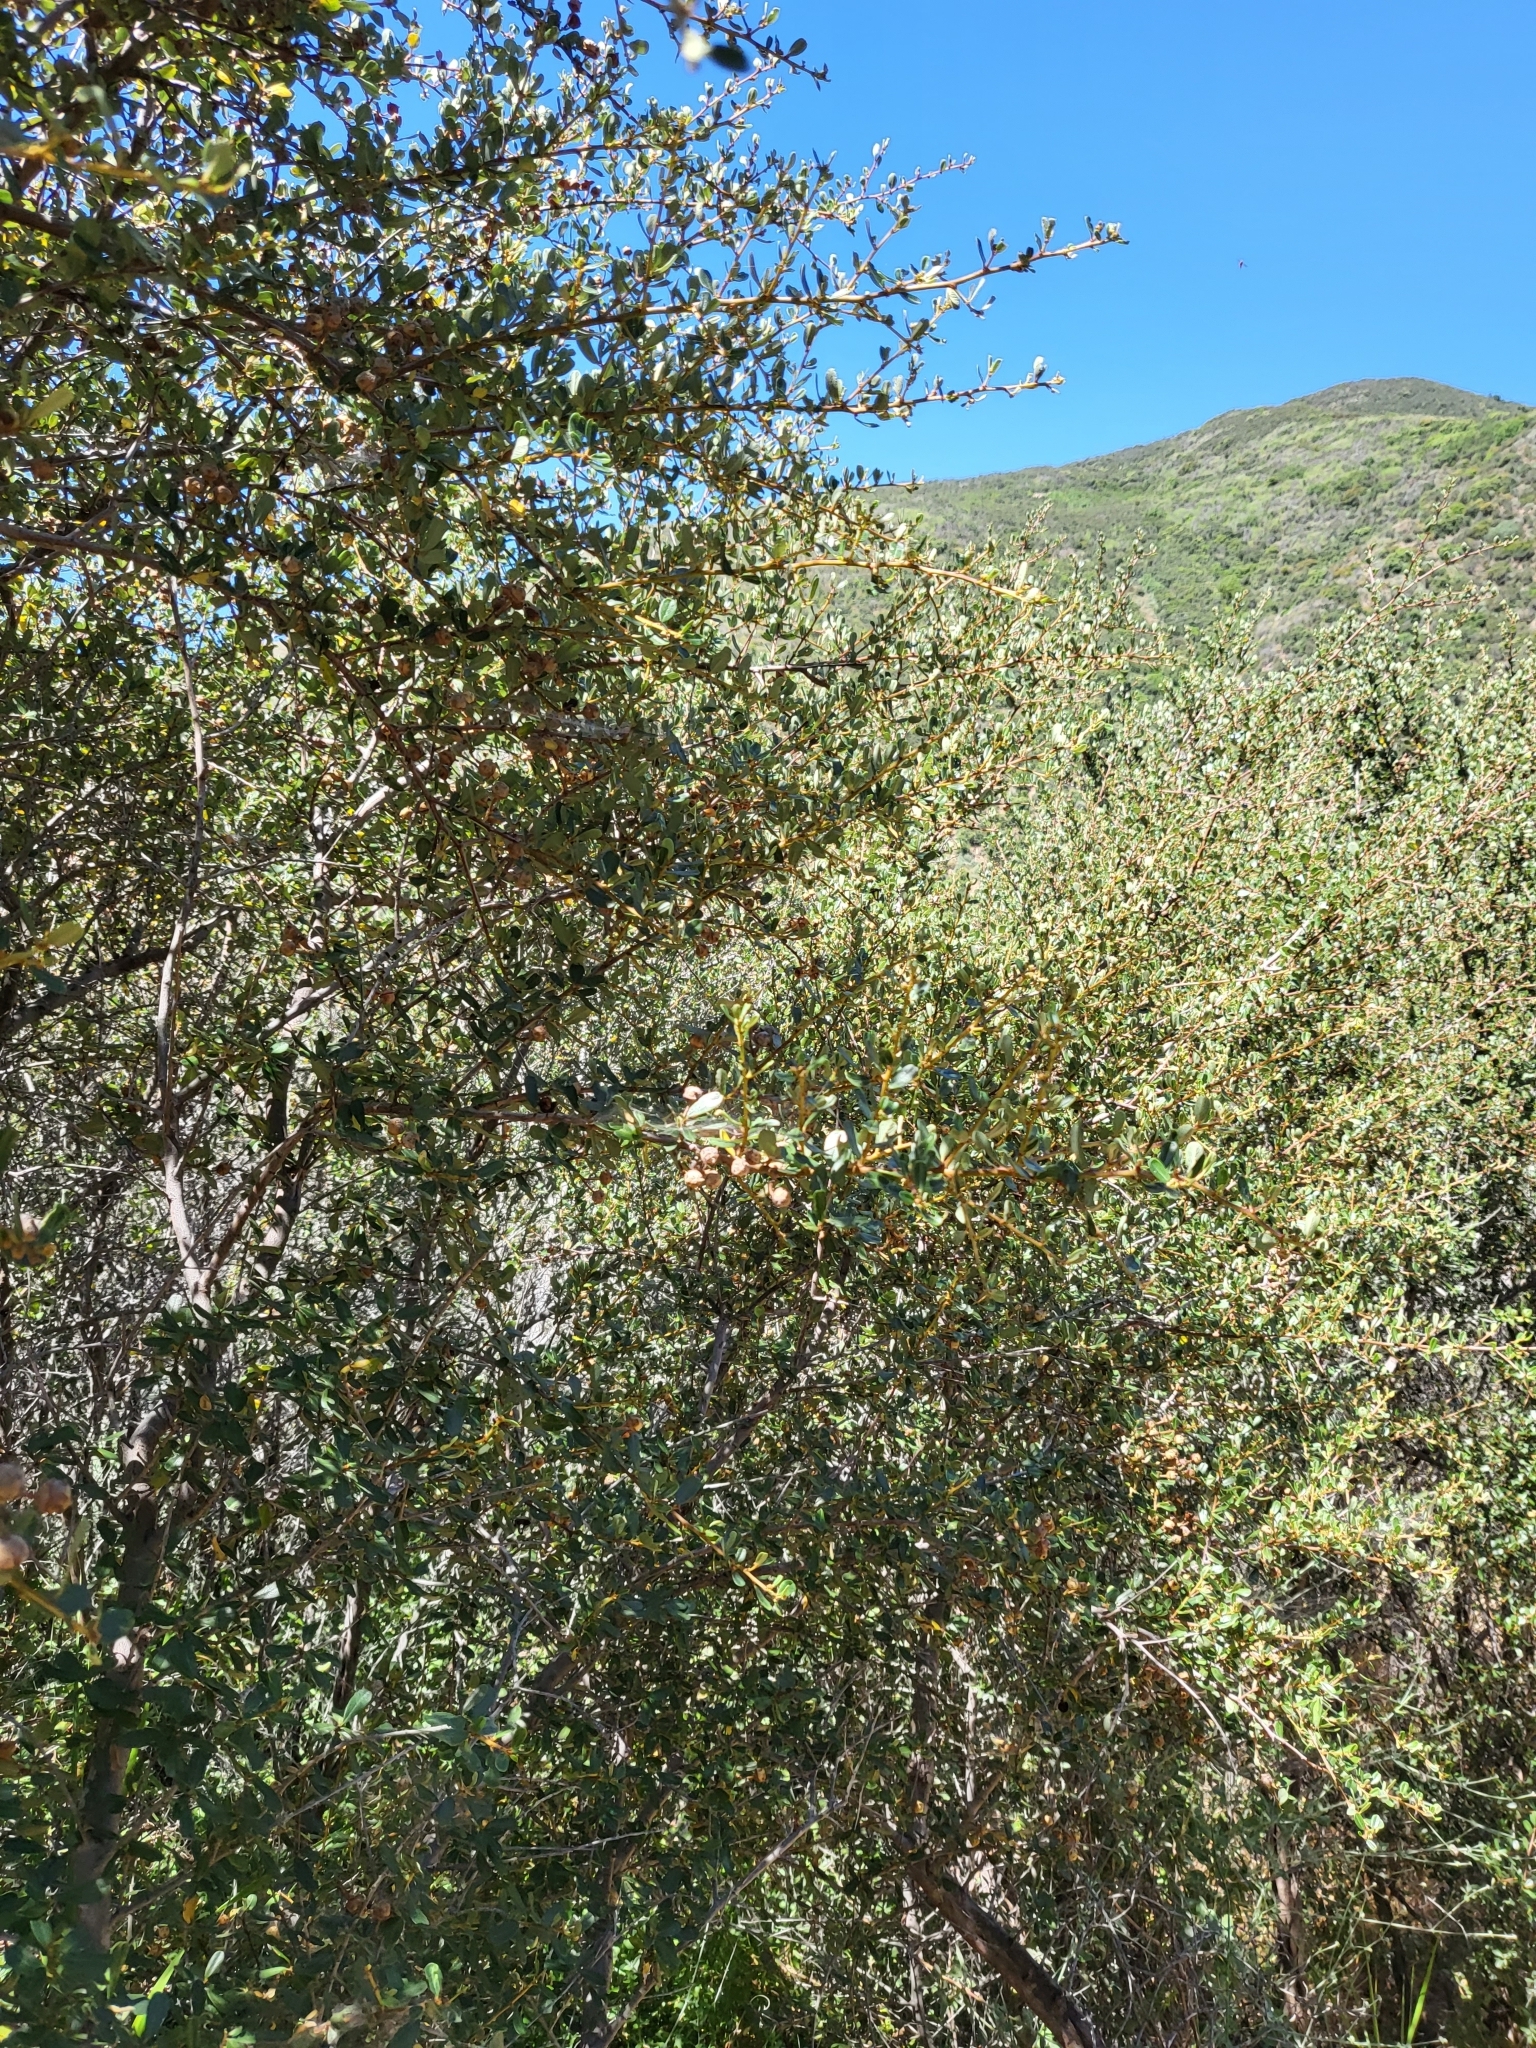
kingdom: Plantae
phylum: Tracheophyta
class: Magnoliopsida
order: Rosales
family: Rhamnaceae
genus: Ceanothus
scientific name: Ceanothus megacarpus
